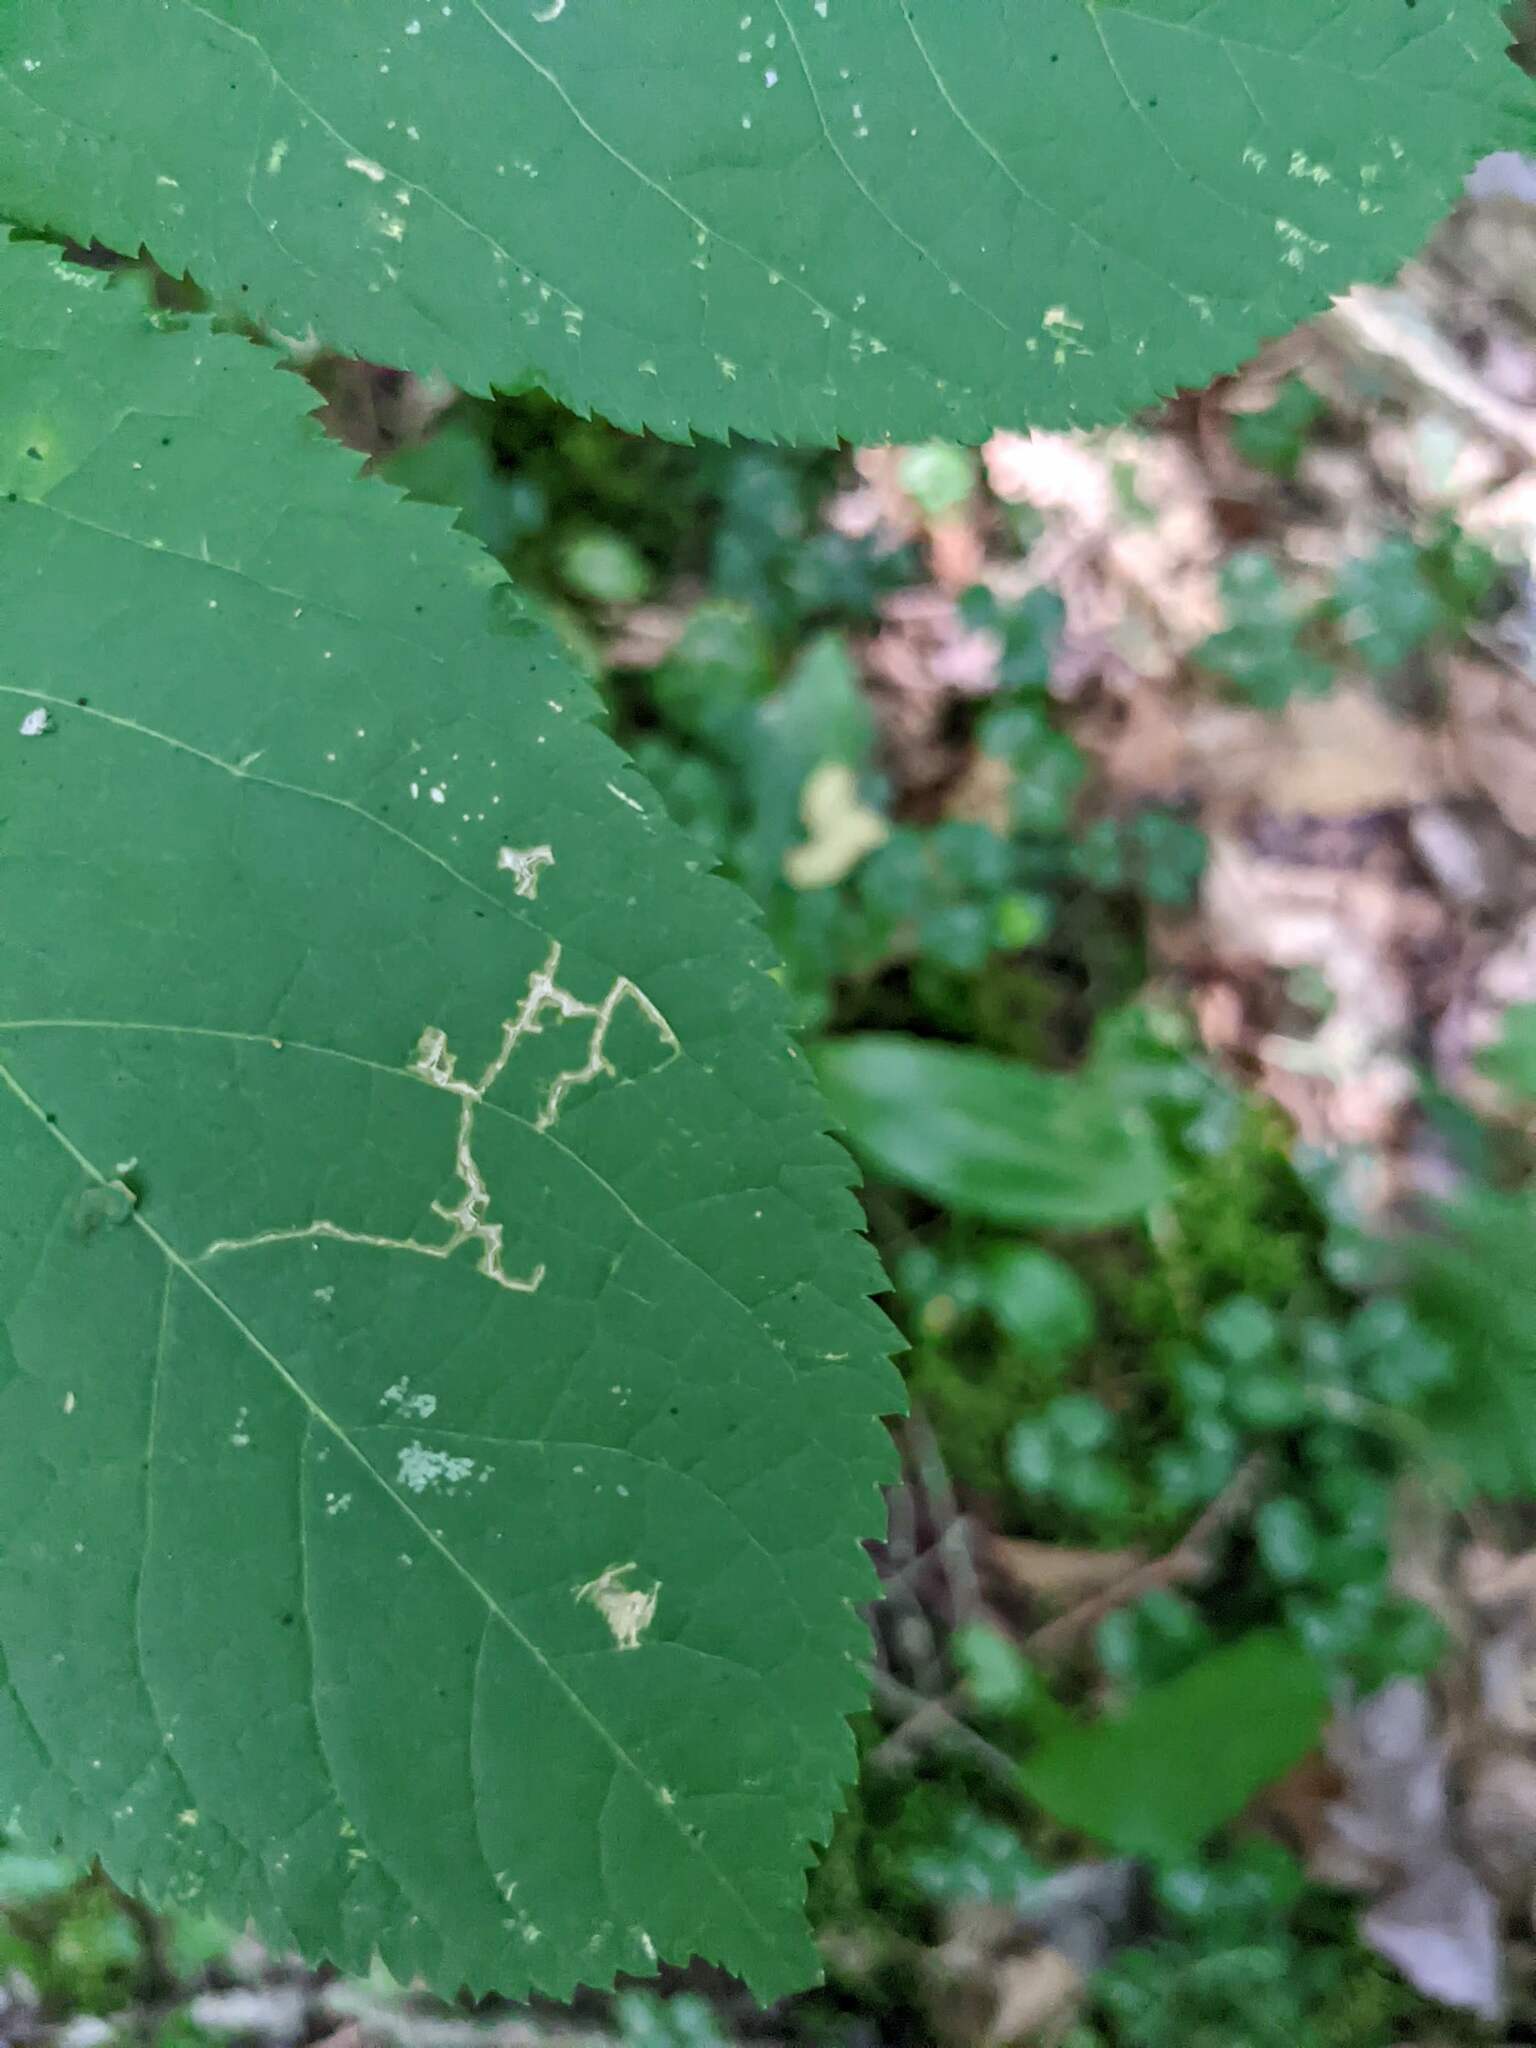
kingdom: Plantae
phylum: Tracheophyta
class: Magnoliopsida
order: Apiales
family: Araliaceae
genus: Aralia
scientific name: Aralia nudicaulis
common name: Wild sarsaparilla
